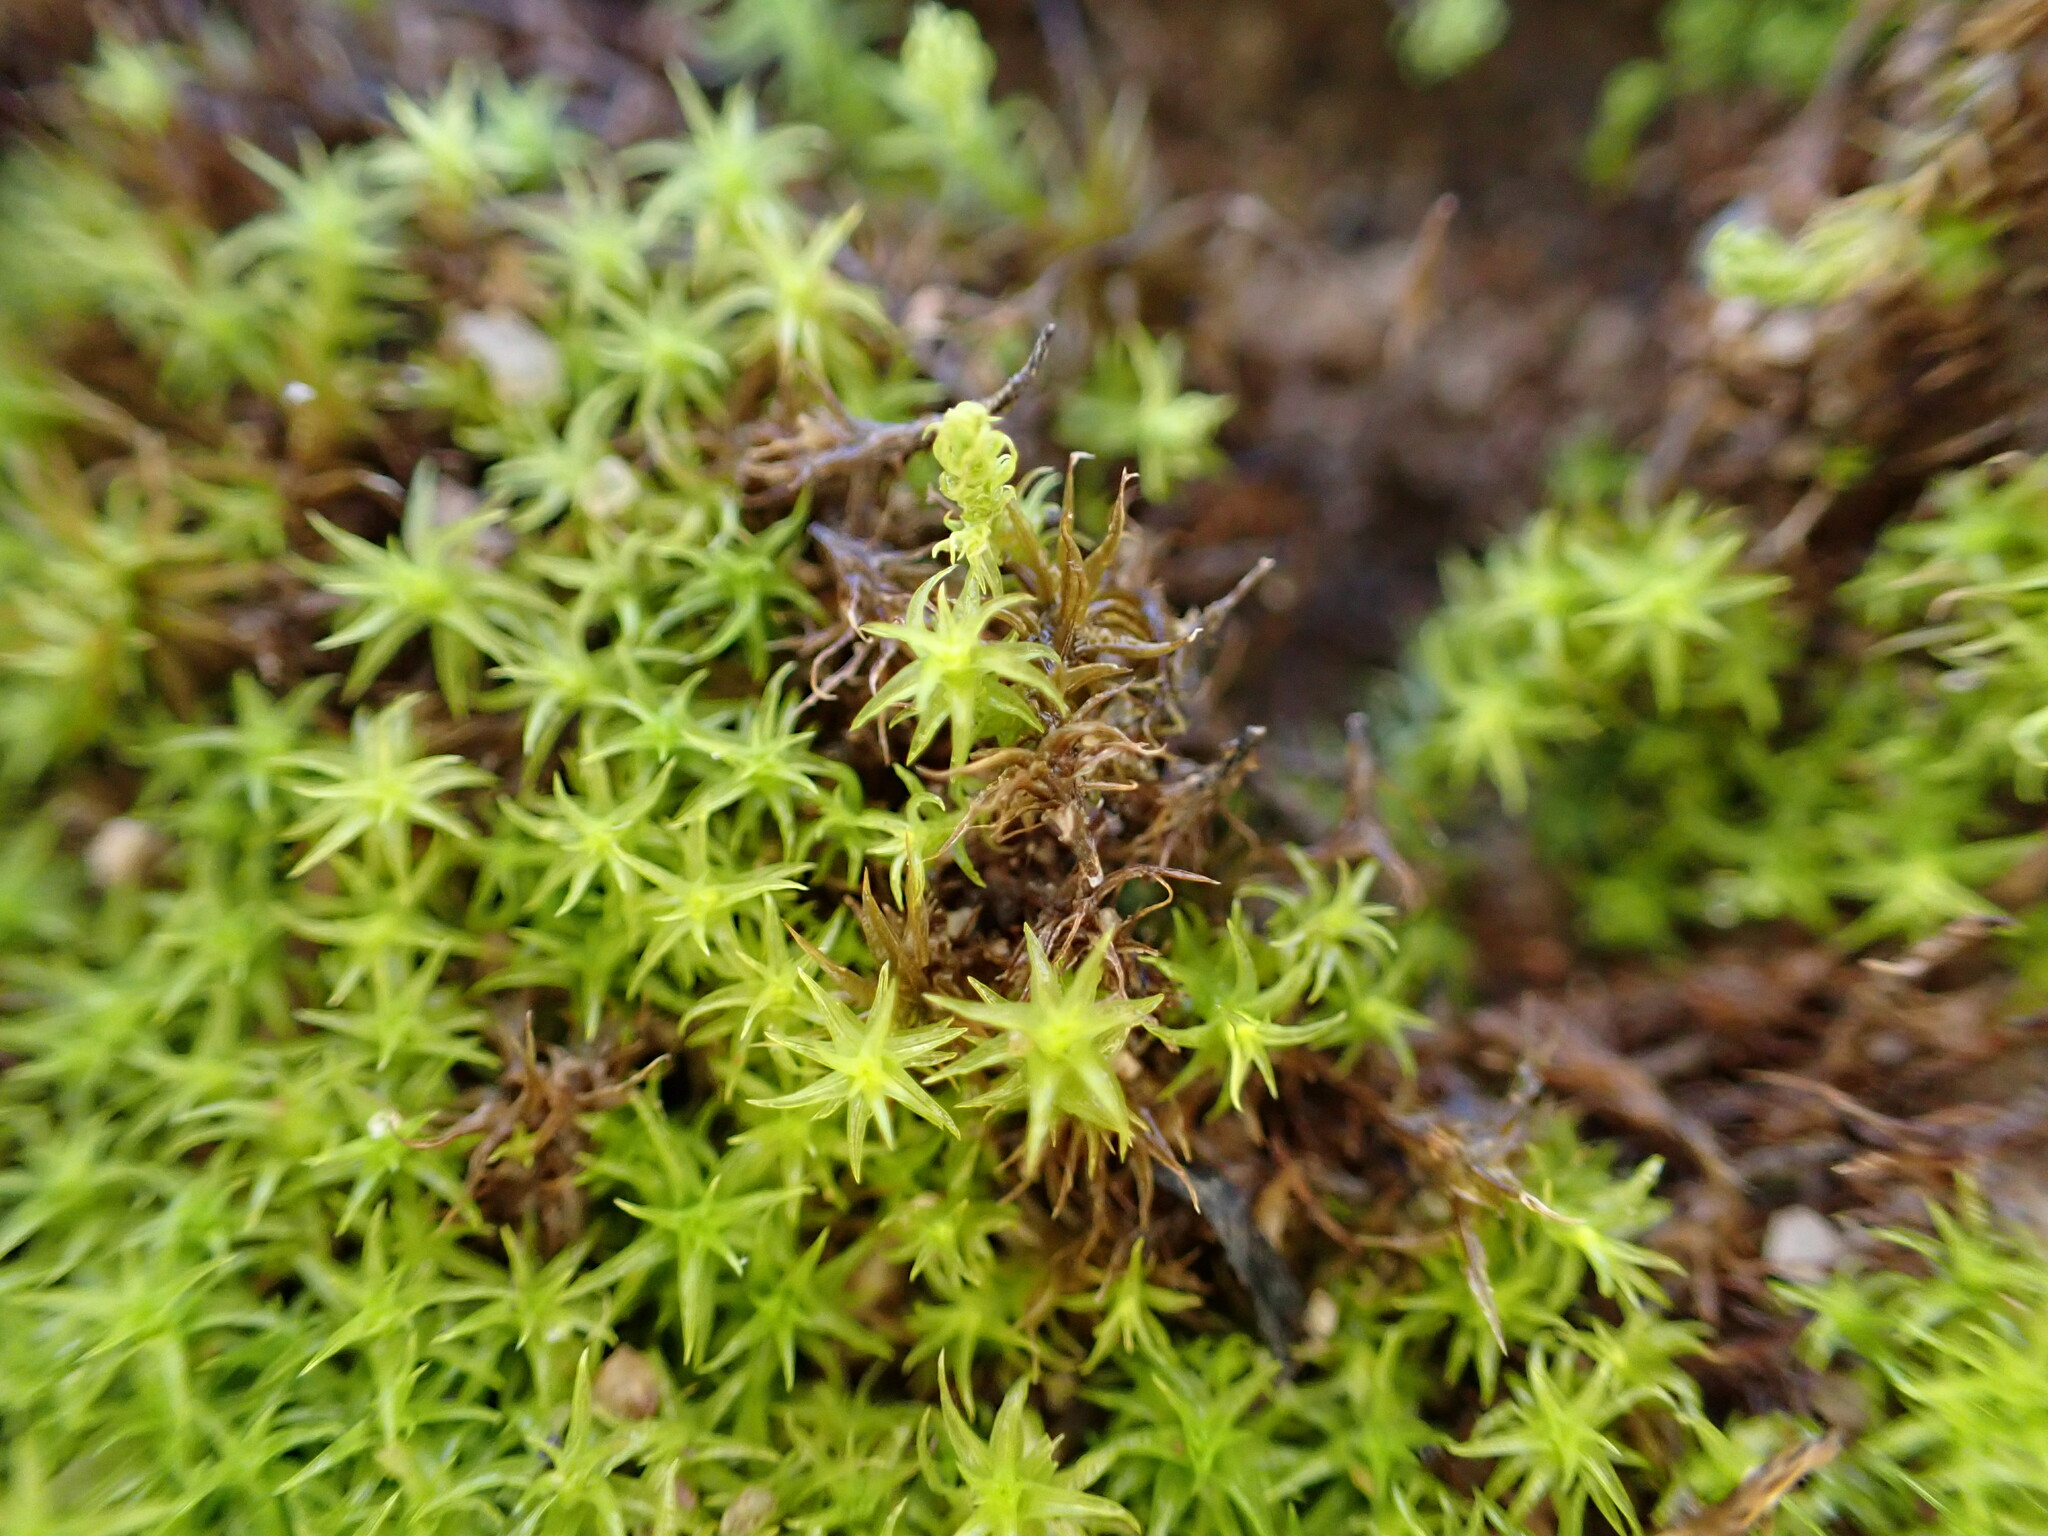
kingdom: Plantae
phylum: Bryophyta
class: Bryopsida
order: Pottiales
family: Pottiaceae
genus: Pleurochaete
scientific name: Pleurochaete squarrosa
